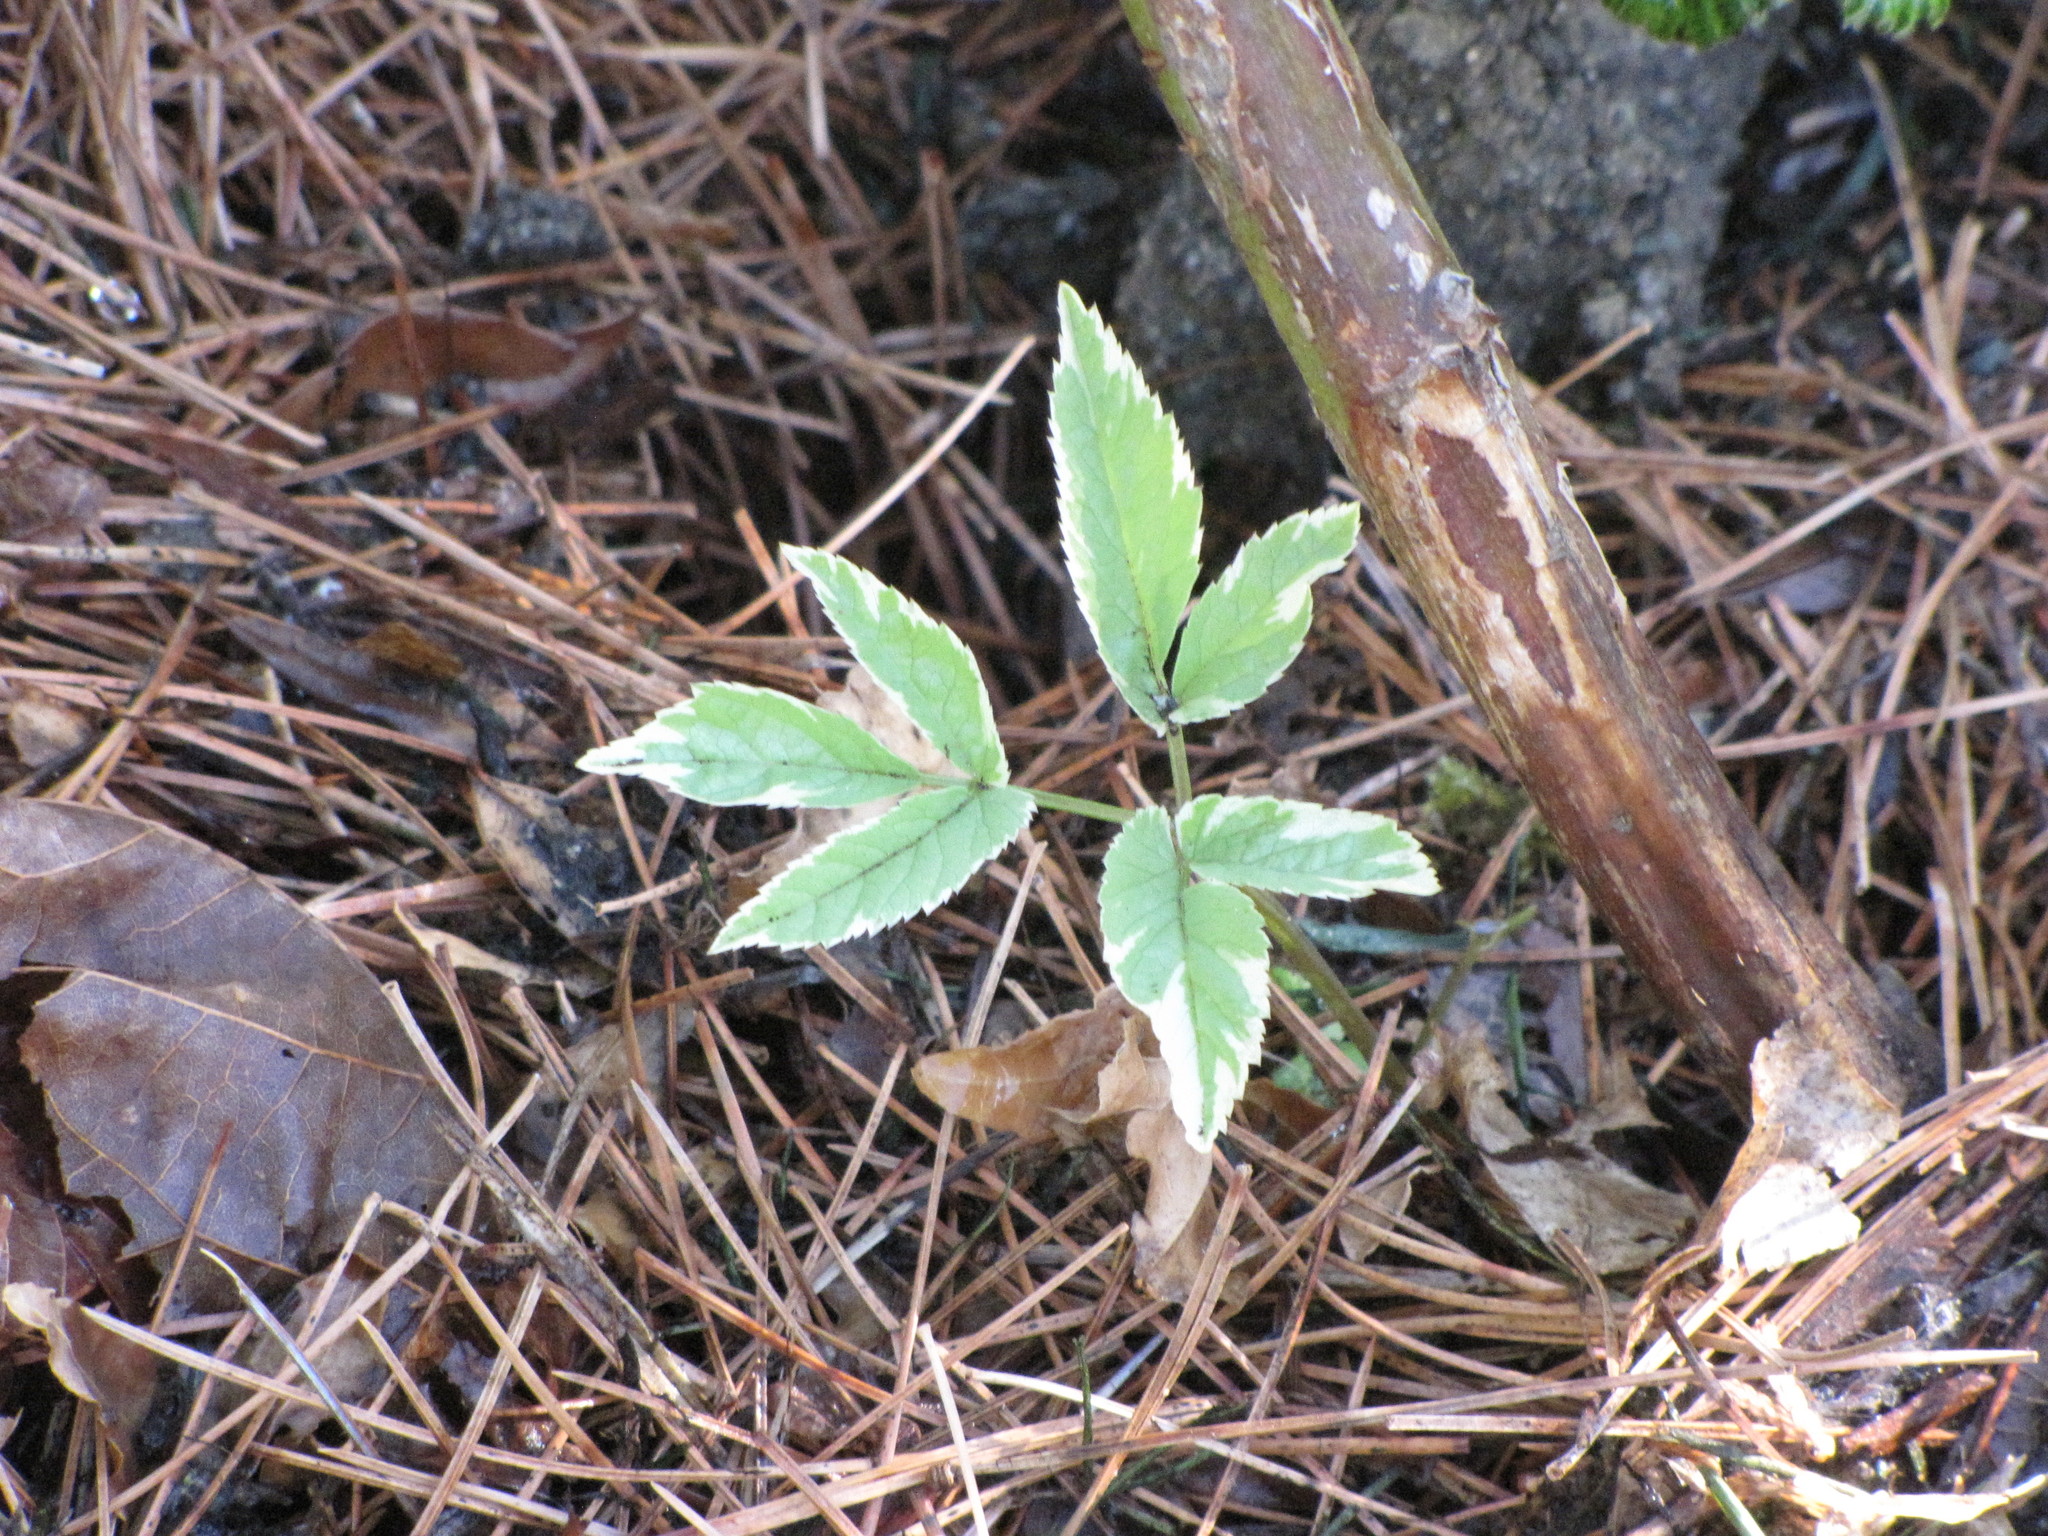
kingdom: Plantae
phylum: Tracheophyta
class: Magnoliopsida
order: Apiales
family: Apiaceae
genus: Aegopodium
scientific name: Aegopodium podagraria
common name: Ground-elder
